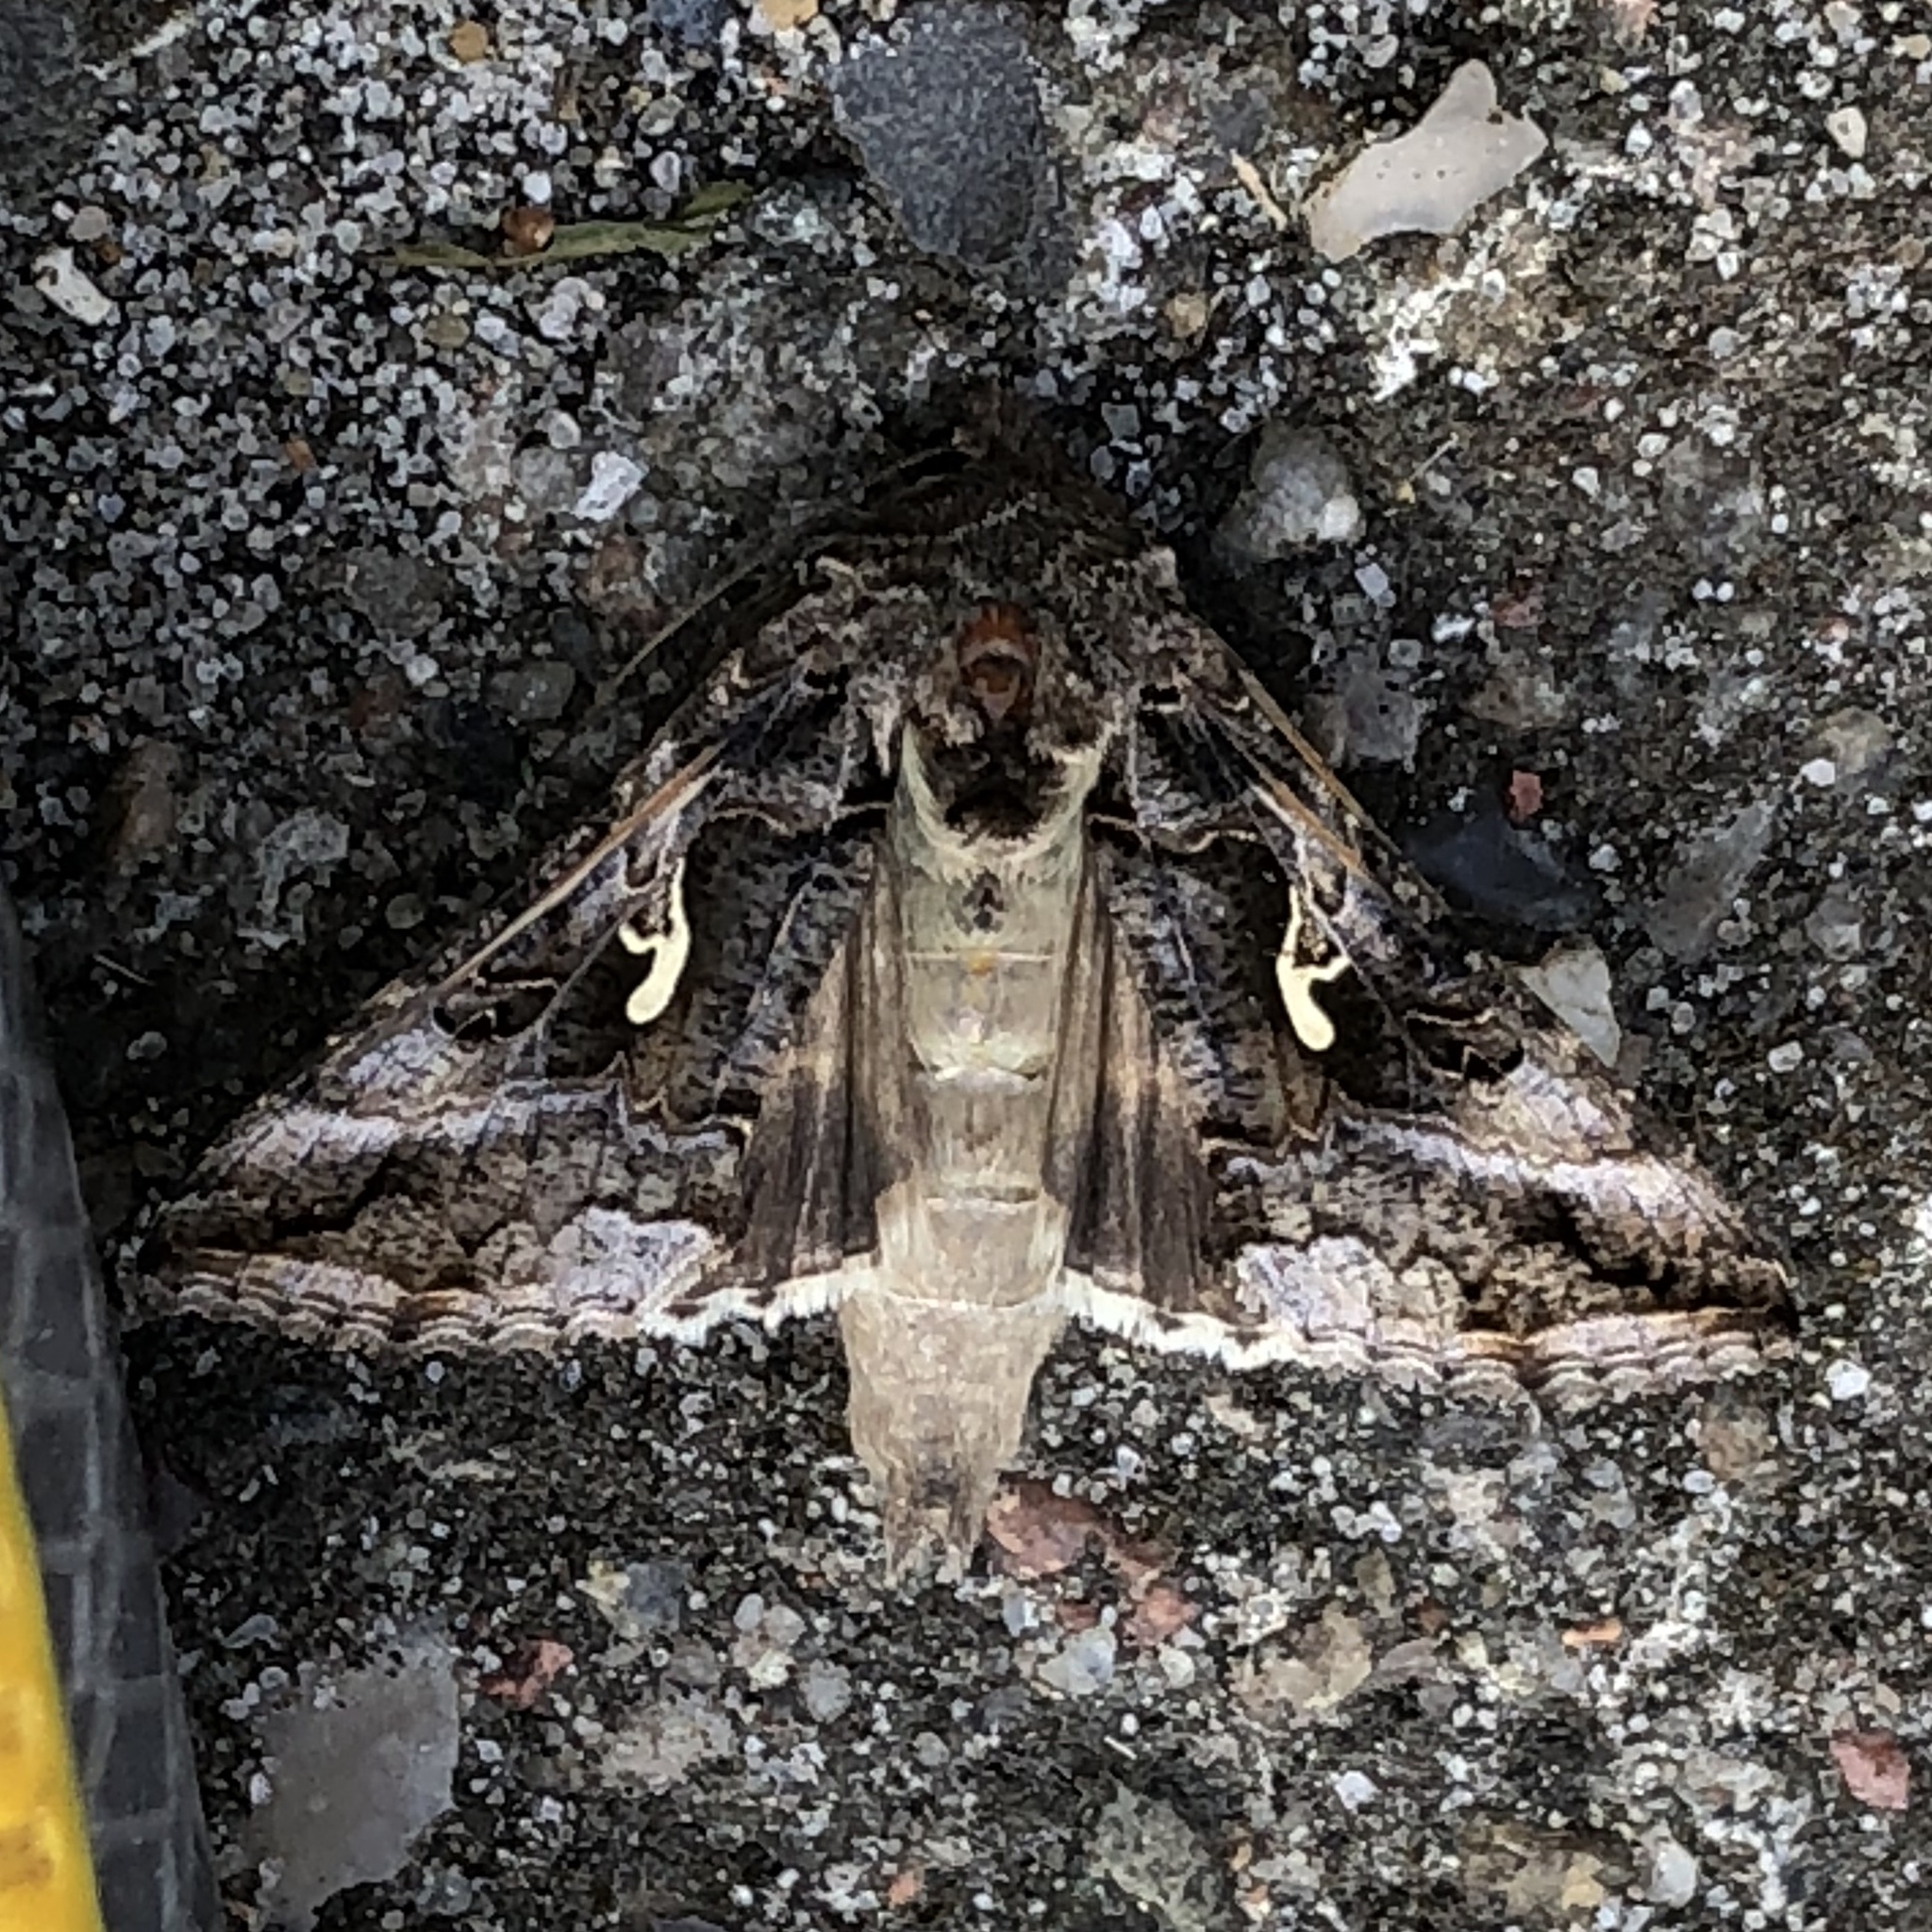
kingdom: Animalia
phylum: Arthropoda
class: Insecta
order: Lepidoptera
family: Noctuidae
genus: Autographa
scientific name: Autographa gamma
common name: Silver y
